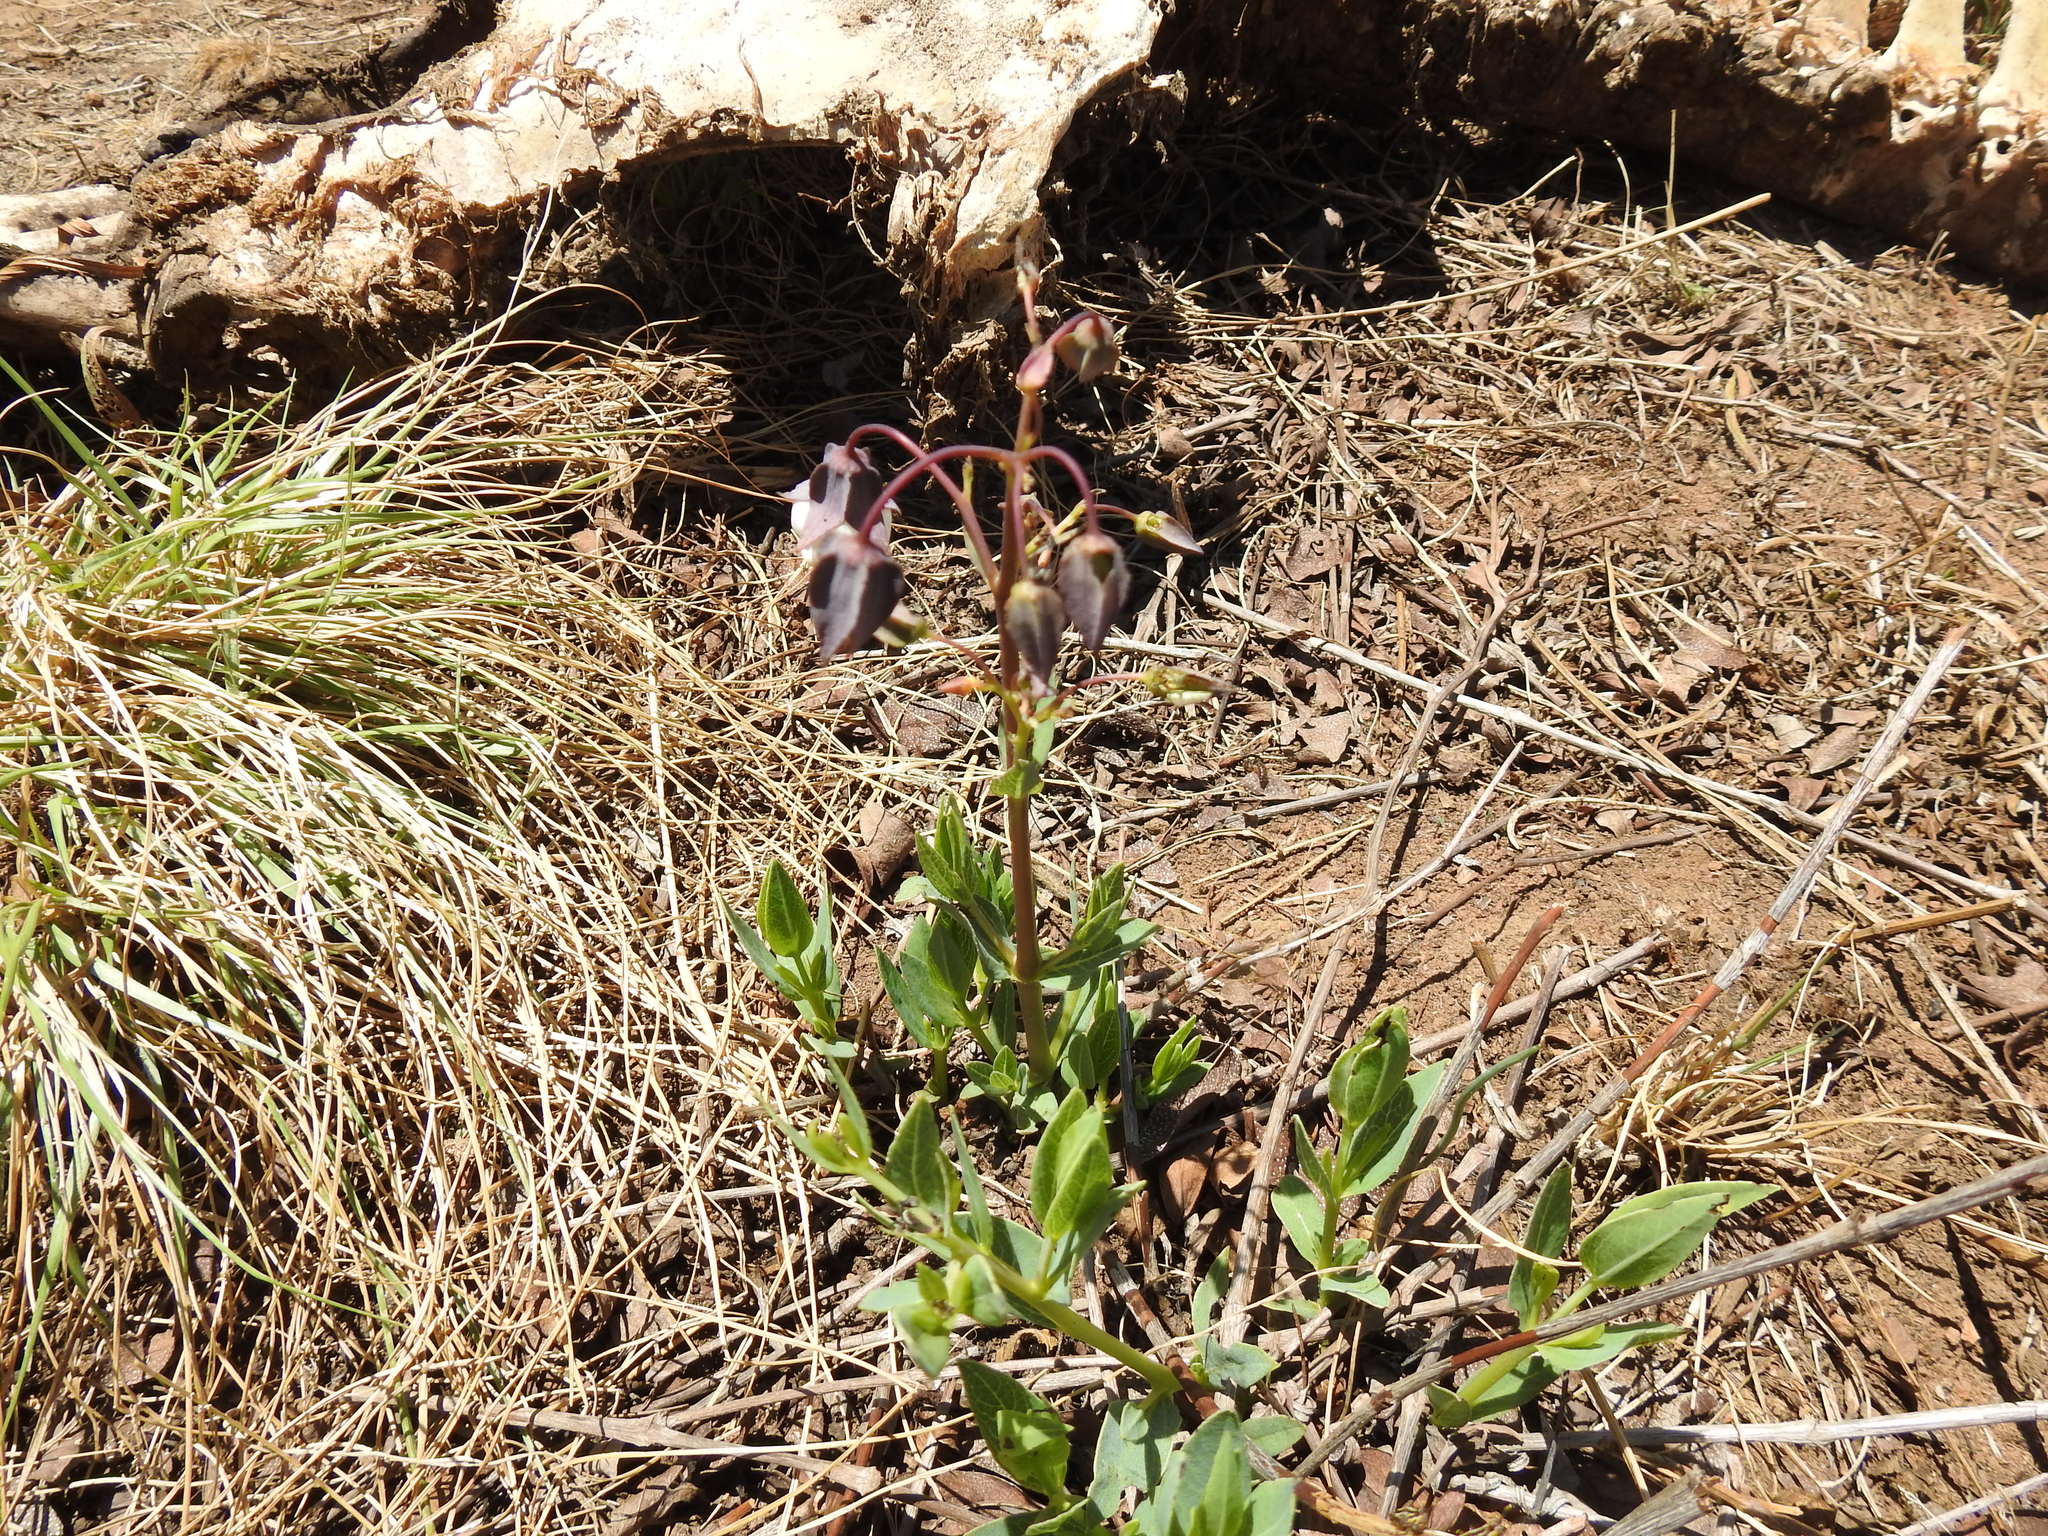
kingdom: Plantae
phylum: Tracheophyta
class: Magnoliopsida
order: Boraginales
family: Boraginaceae
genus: Trichodesma
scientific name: Trichodesma physaloides
